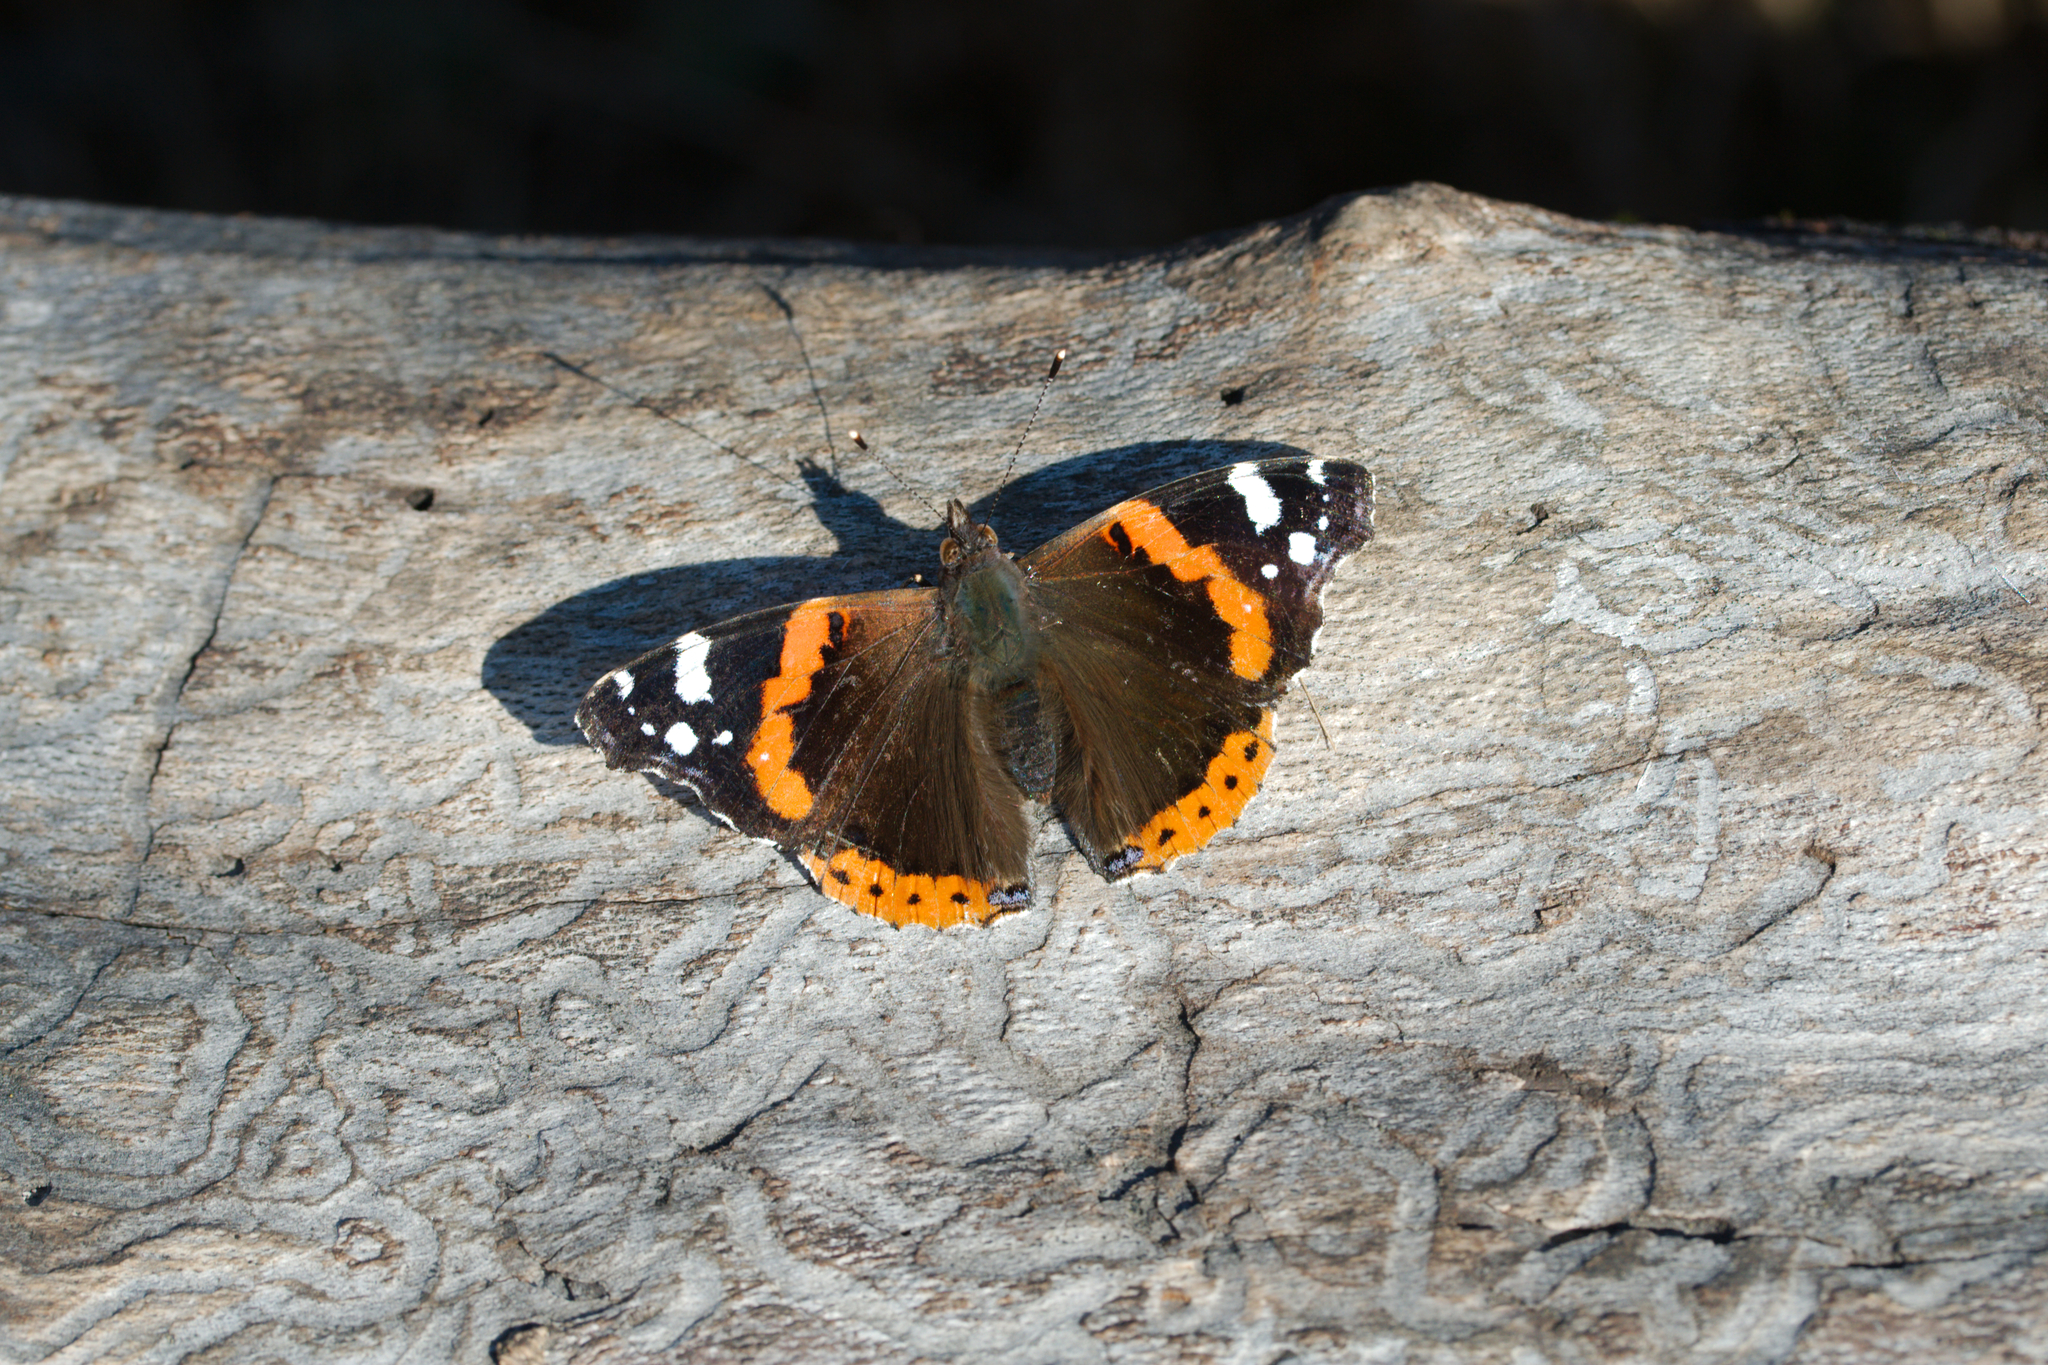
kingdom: Animalia
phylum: Arthropoda
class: Insecta
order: Lepidoptera
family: Nymphalidae
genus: Vanessa
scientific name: Vanessa atalanta
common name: Red admiral
